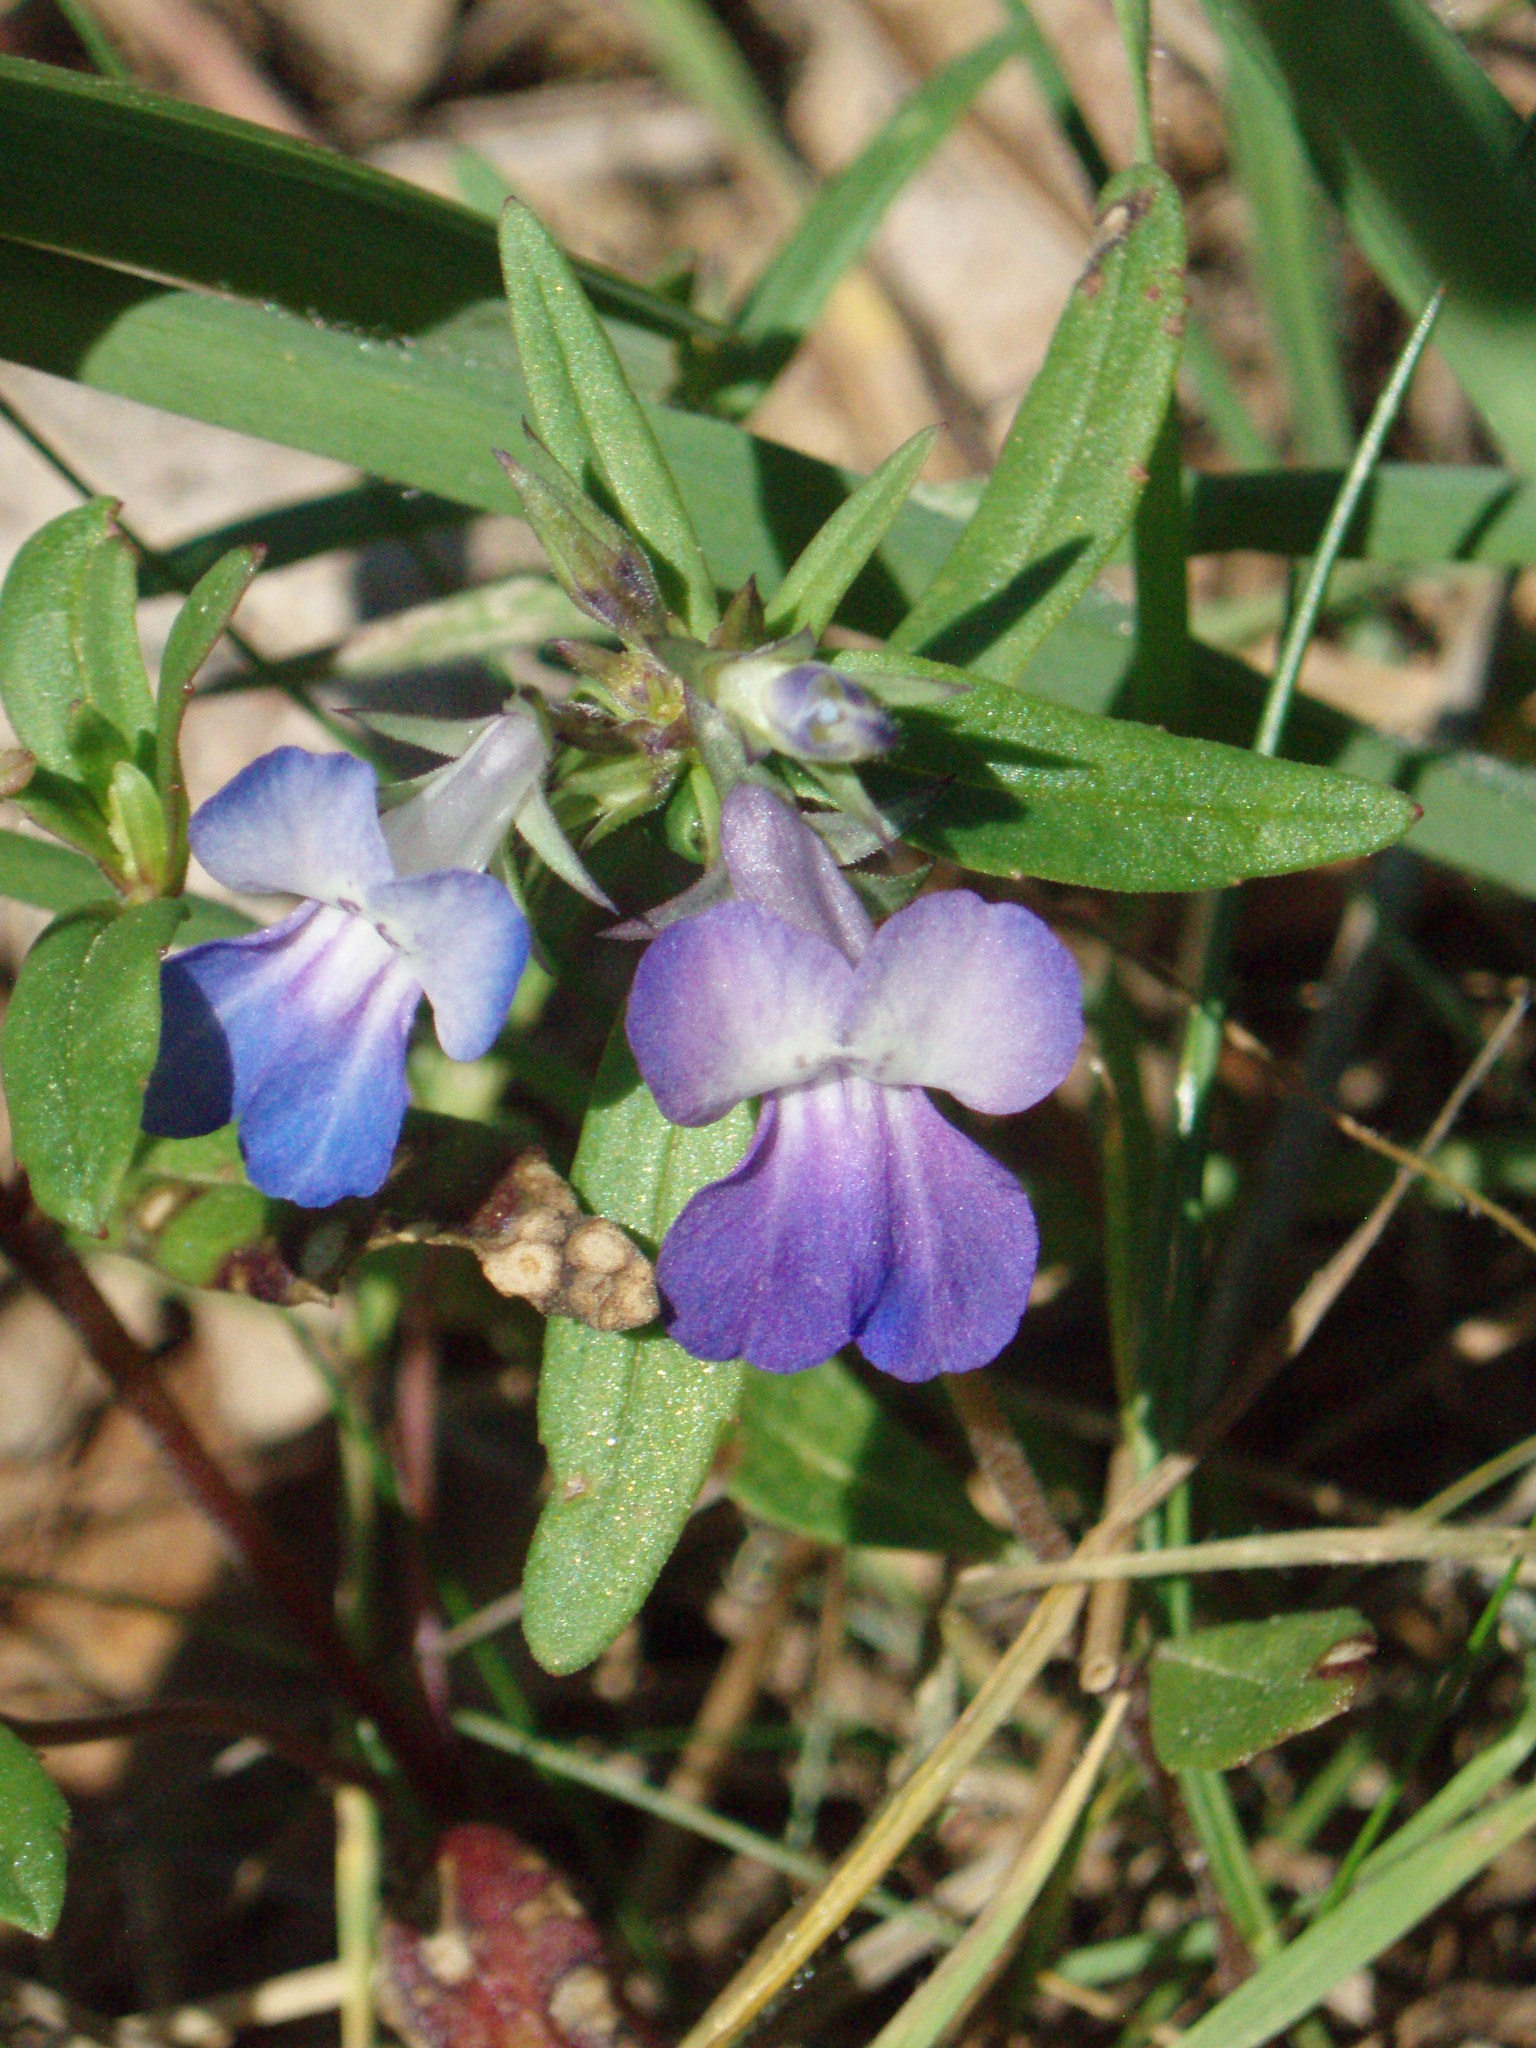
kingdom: Plantae
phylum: Tracheophyta
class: Magnoliopsida
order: Lamiales
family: Plantaginaceae
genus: Collinsia
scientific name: Collinsia parviflora
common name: Blue-lips
